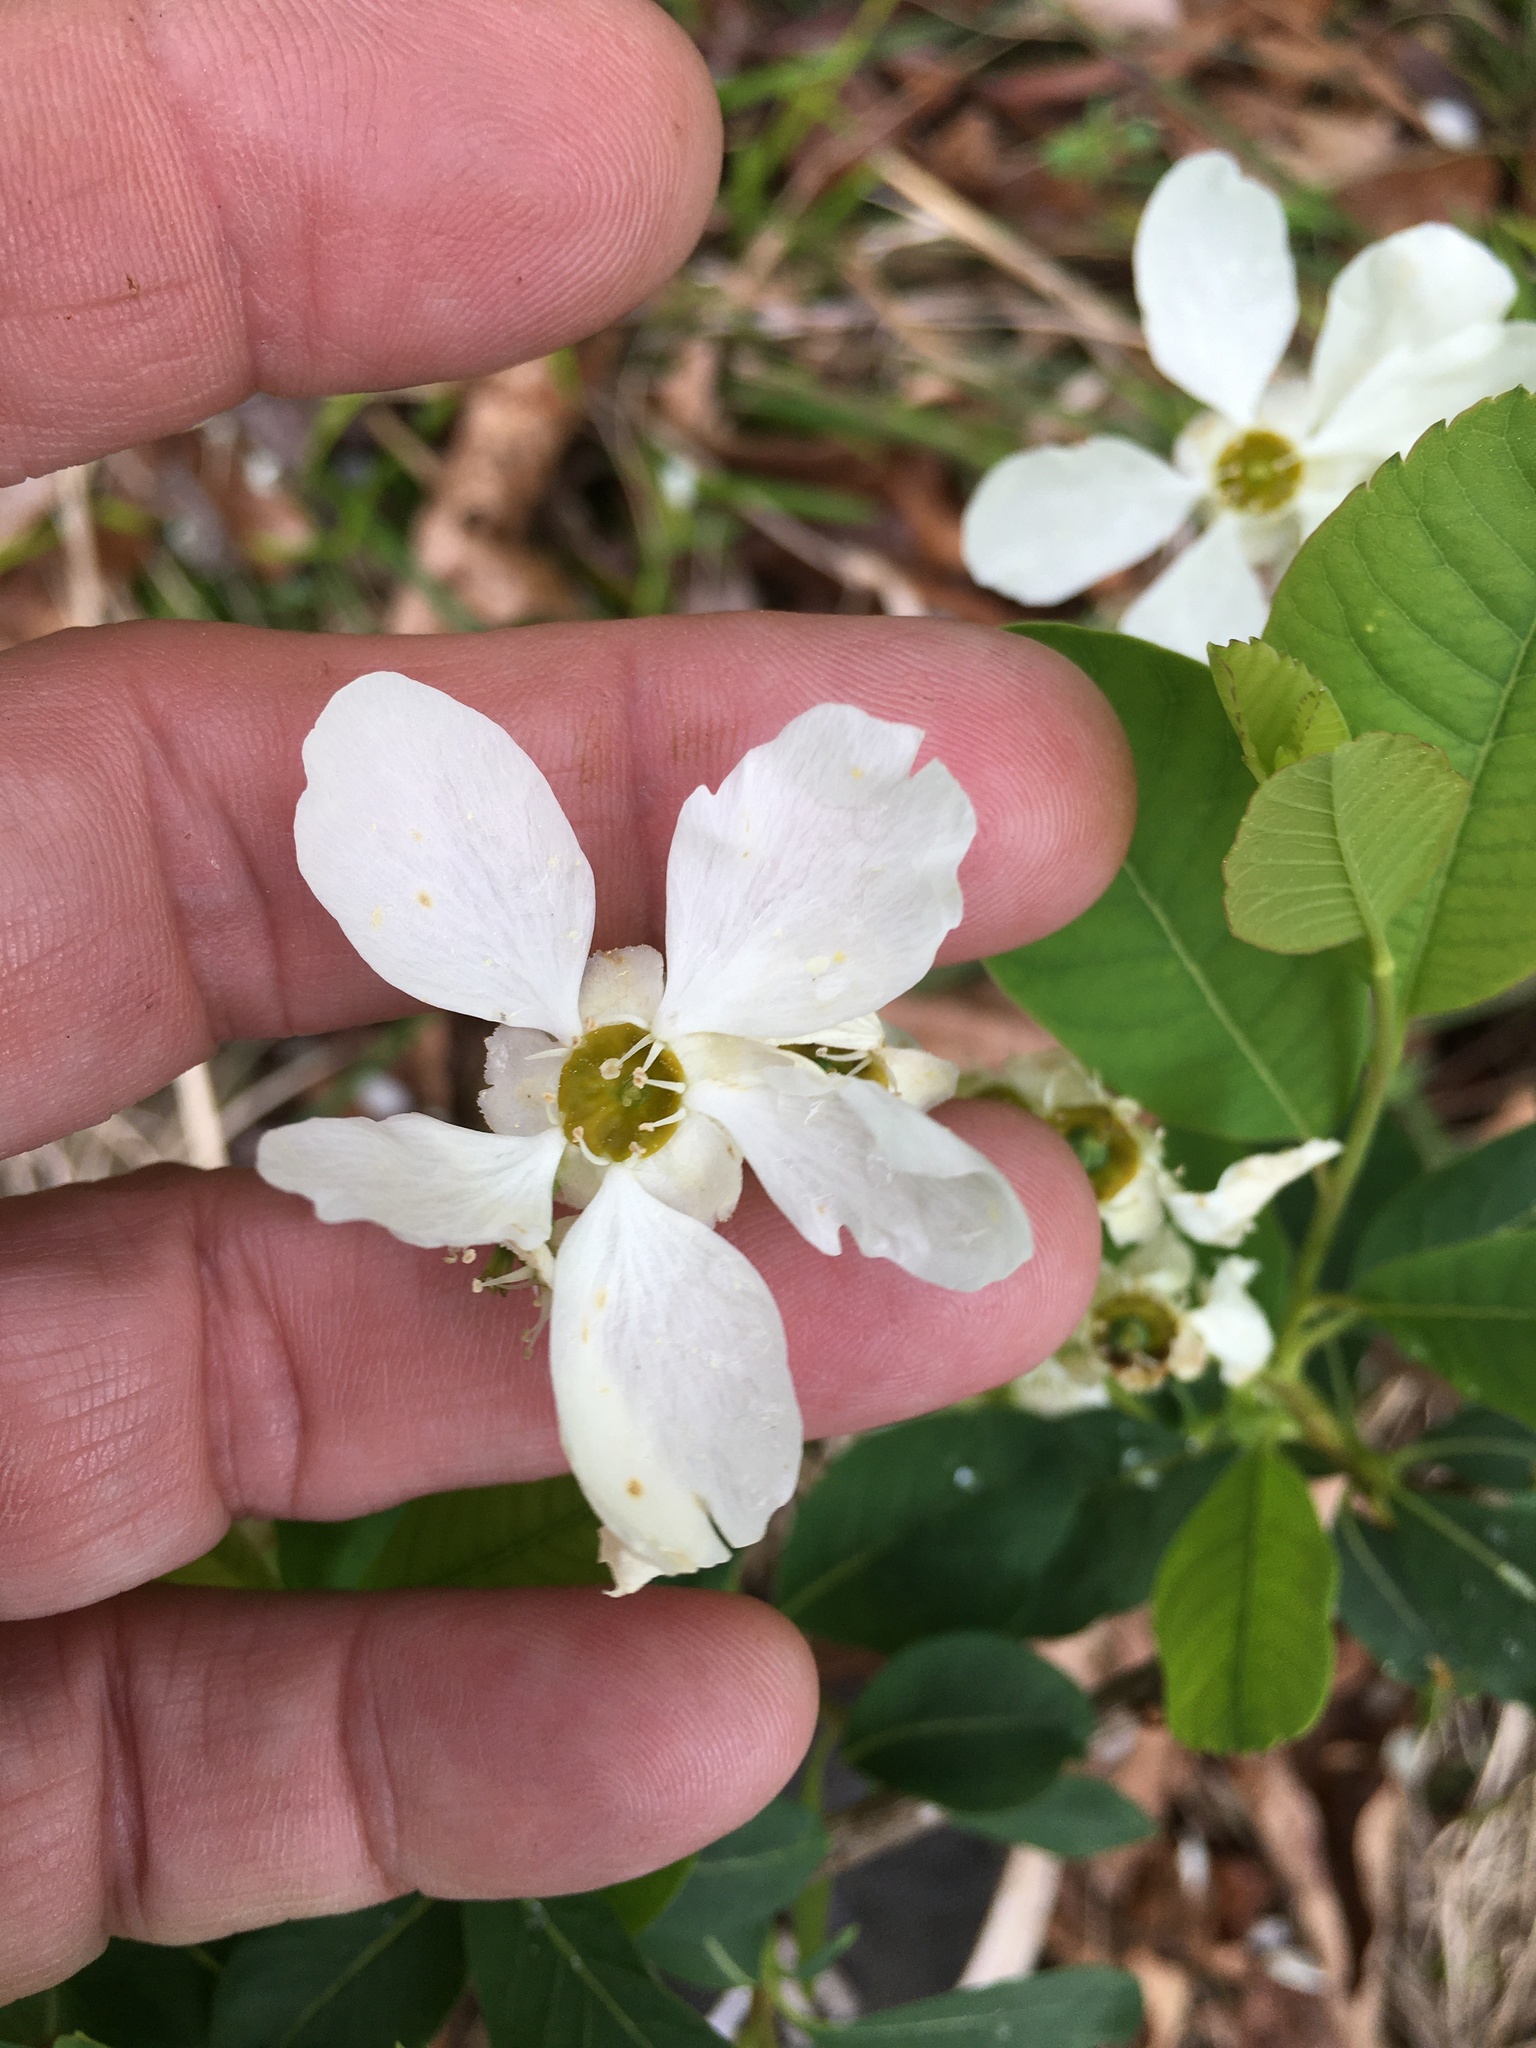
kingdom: Plantae
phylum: Tracheophyta
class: Magnoliopsida
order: Rosales
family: Rosaceae
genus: Exochorda
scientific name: Exochorda racemosa
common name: Common pearlbrush
